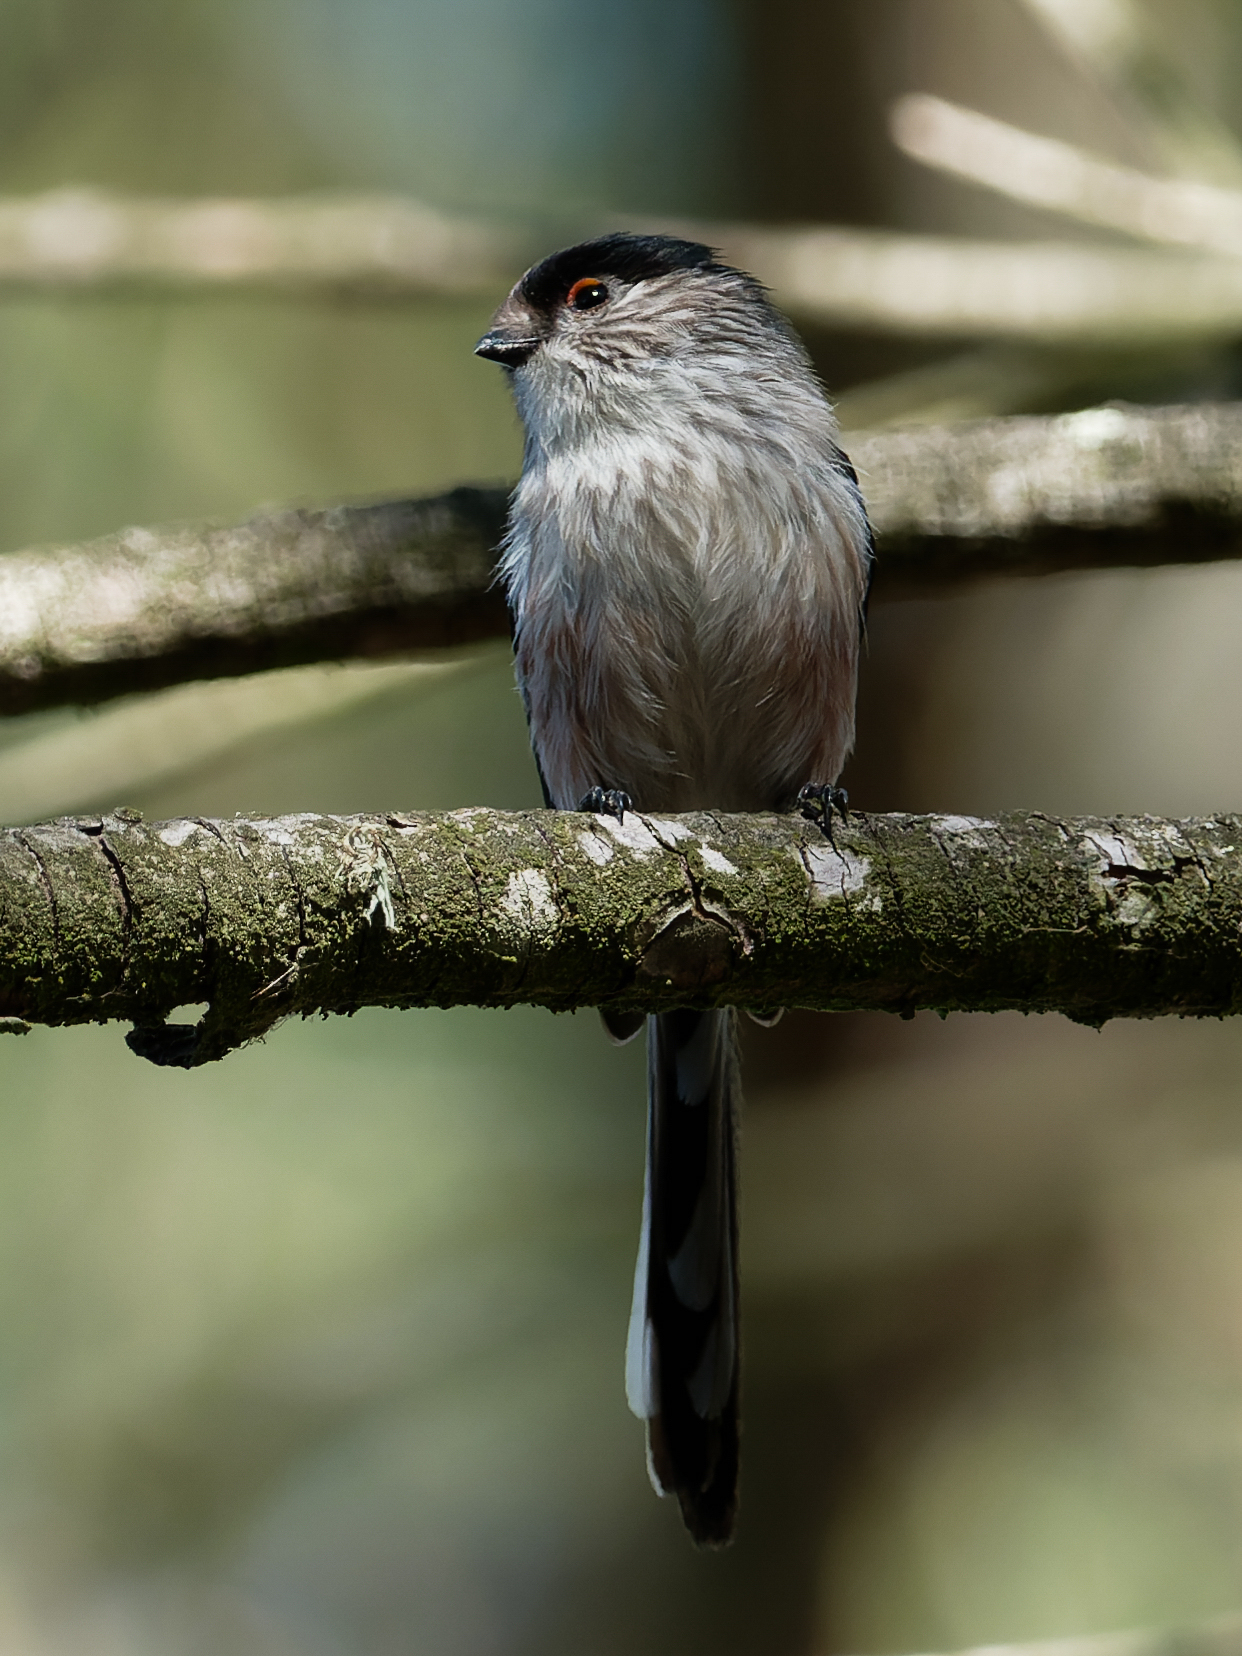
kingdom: Animalia
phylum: Chordata
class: Aves
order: Passeriformes
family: Aegithalidae
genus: Aegithalos
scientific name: Aegithalos caudatus
